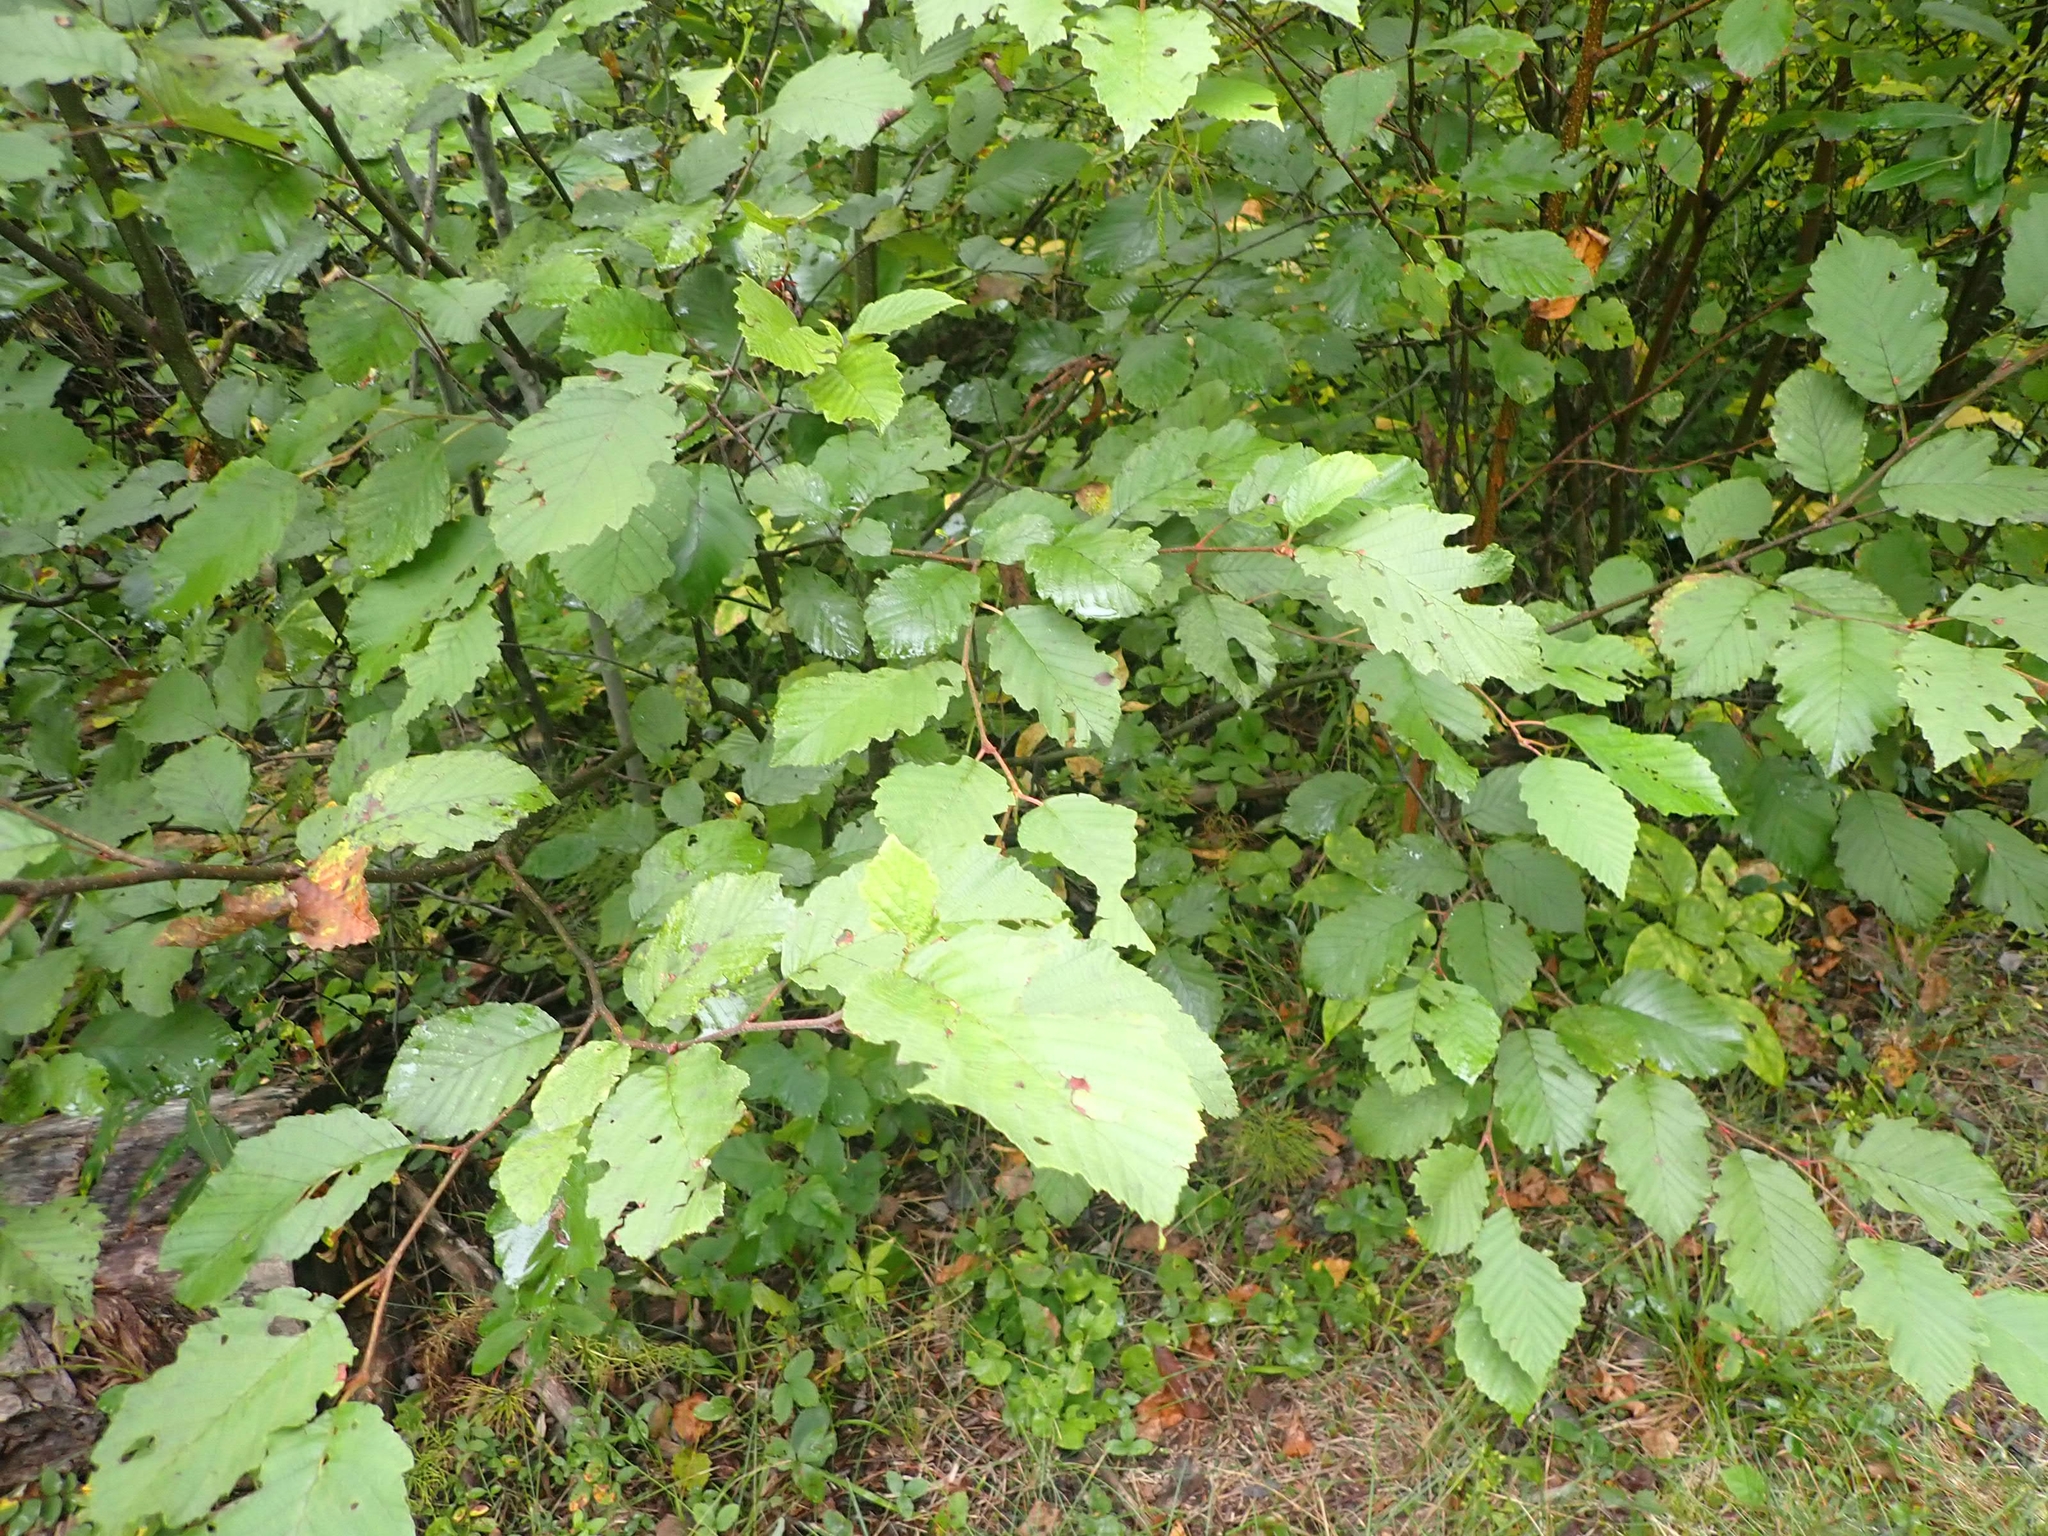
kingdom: Plantae
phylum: Tracheophyta
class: Magnoliopsida
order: Fagales
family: Betulaceae
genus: Alnus
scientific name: Alnus incana
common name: Grey alder
